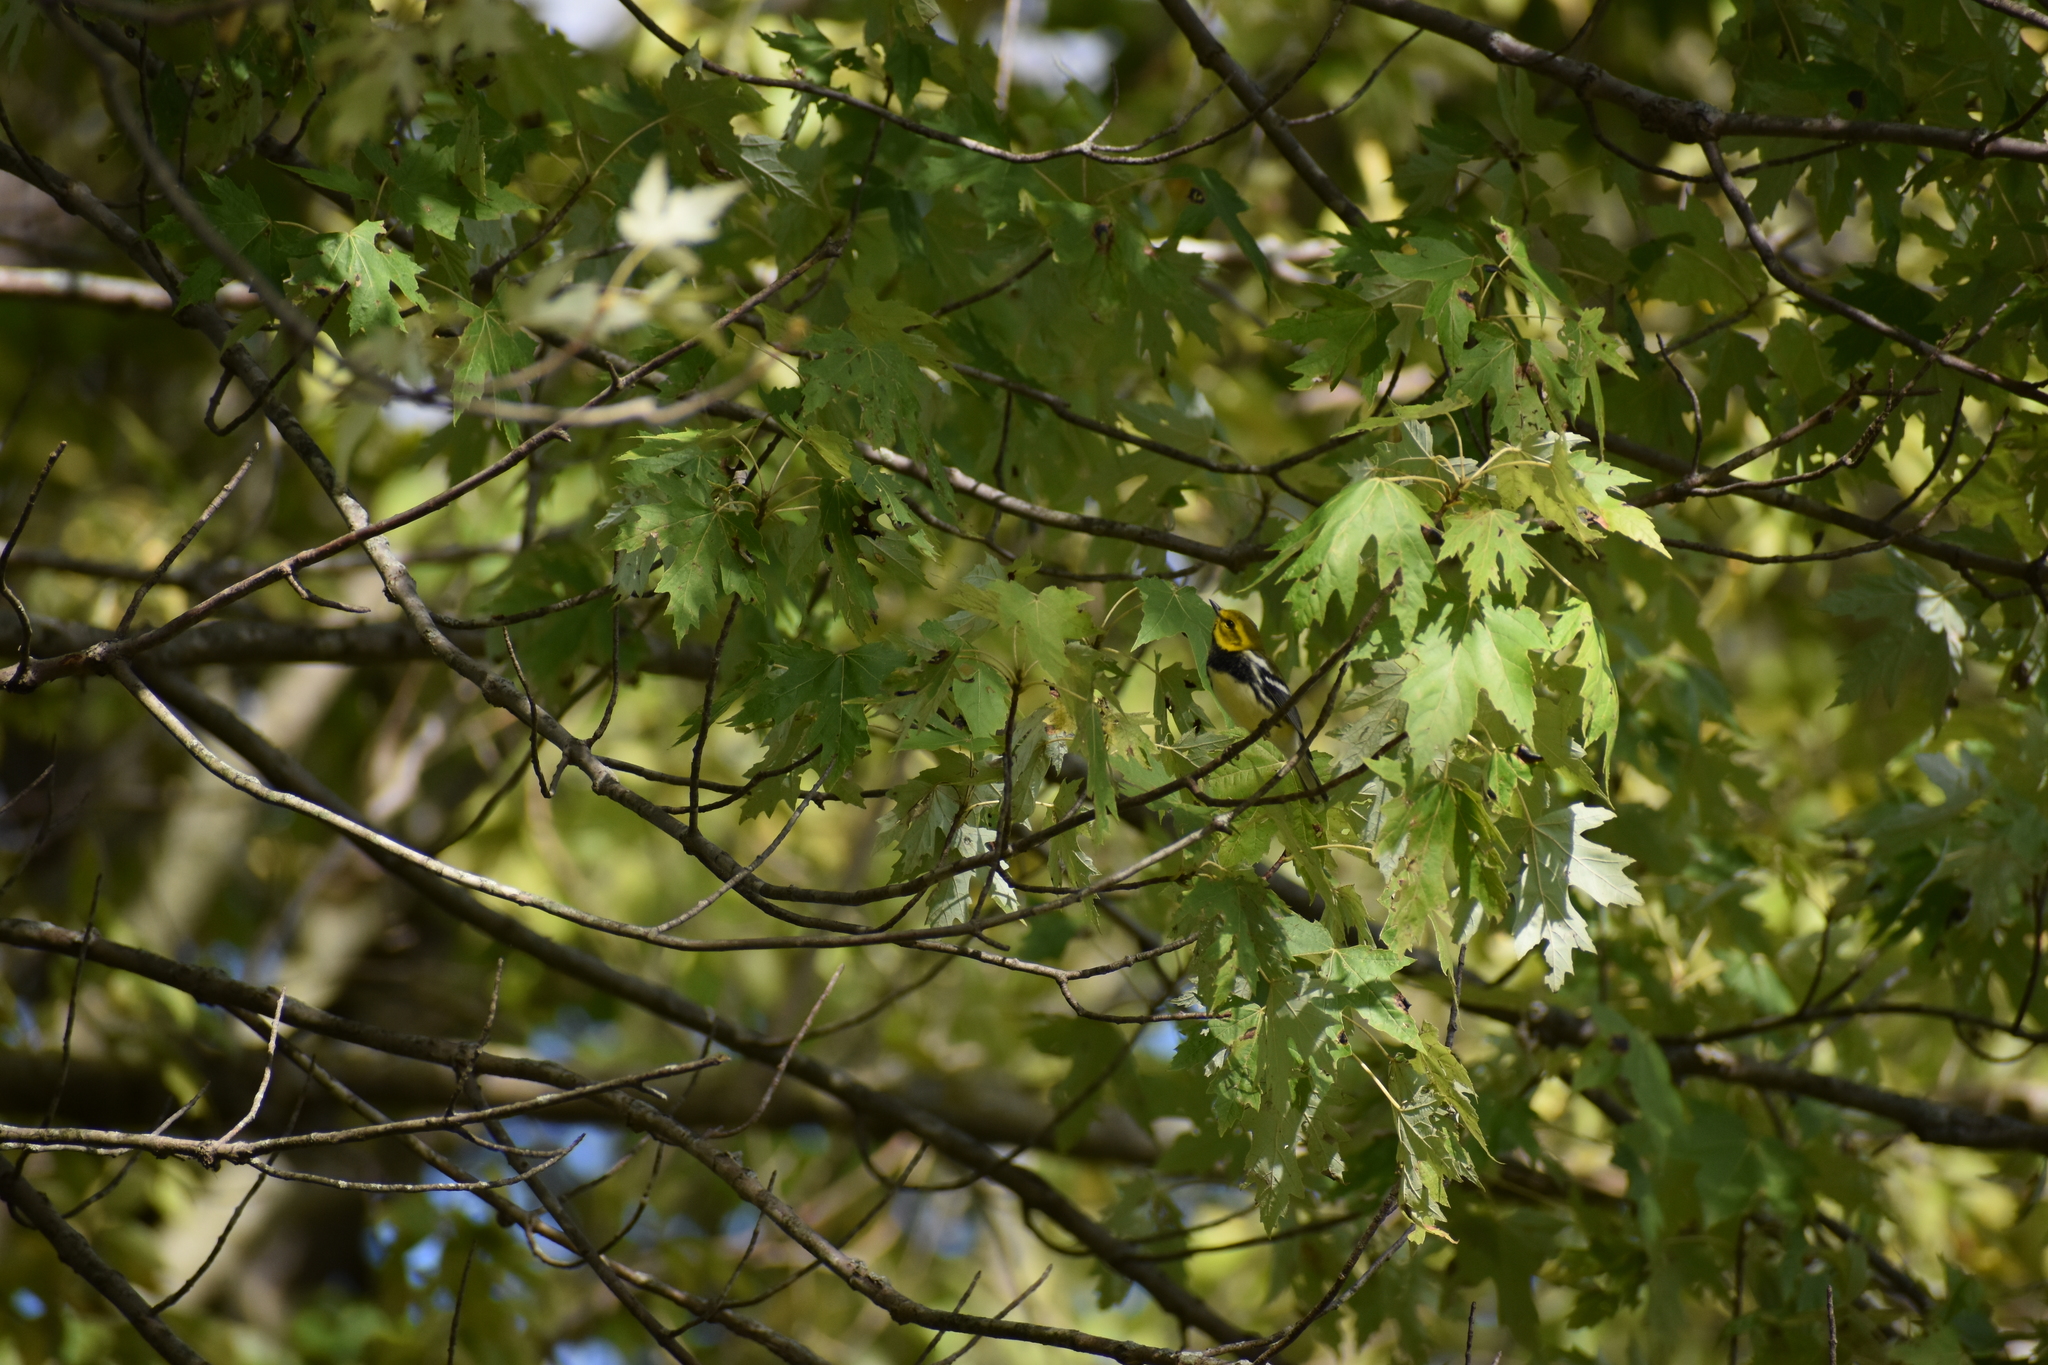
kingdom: Animalia
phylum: Chordata
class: Aves
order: Passeriformes
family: Parulidae
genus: Setophaga
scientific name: Setophaga virens
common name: Black-throated green warbler
